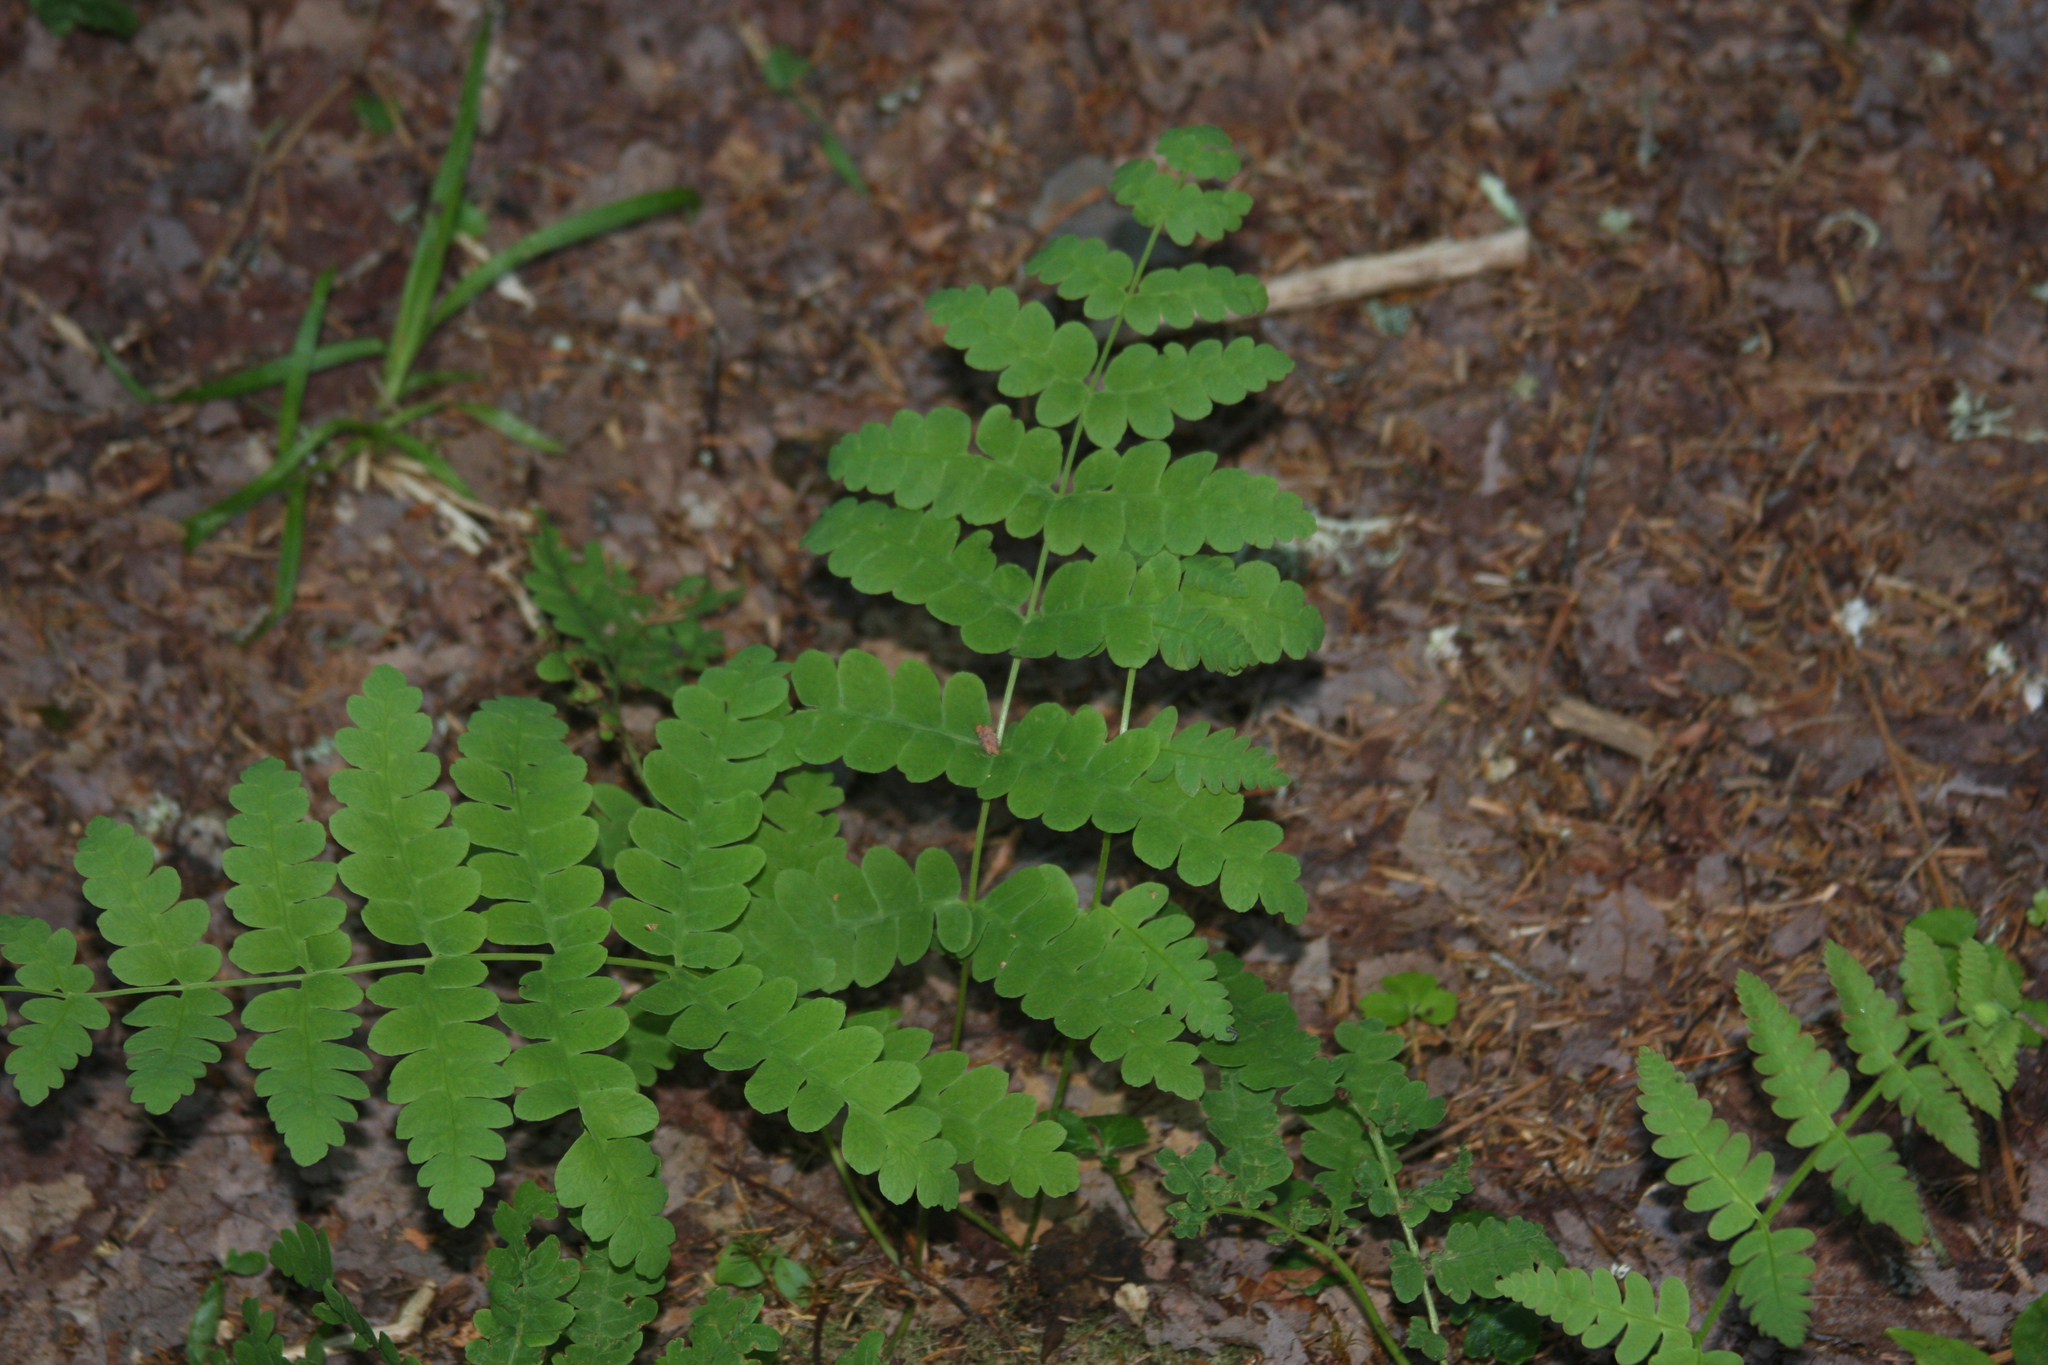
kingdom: Plantae
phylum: Tracheophyta
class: Polypodiopsida
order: Osmundales
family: Osmundaceae
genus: Claytosmunda
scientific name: Claytosmunda claytoniana
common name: Clayton's fern
